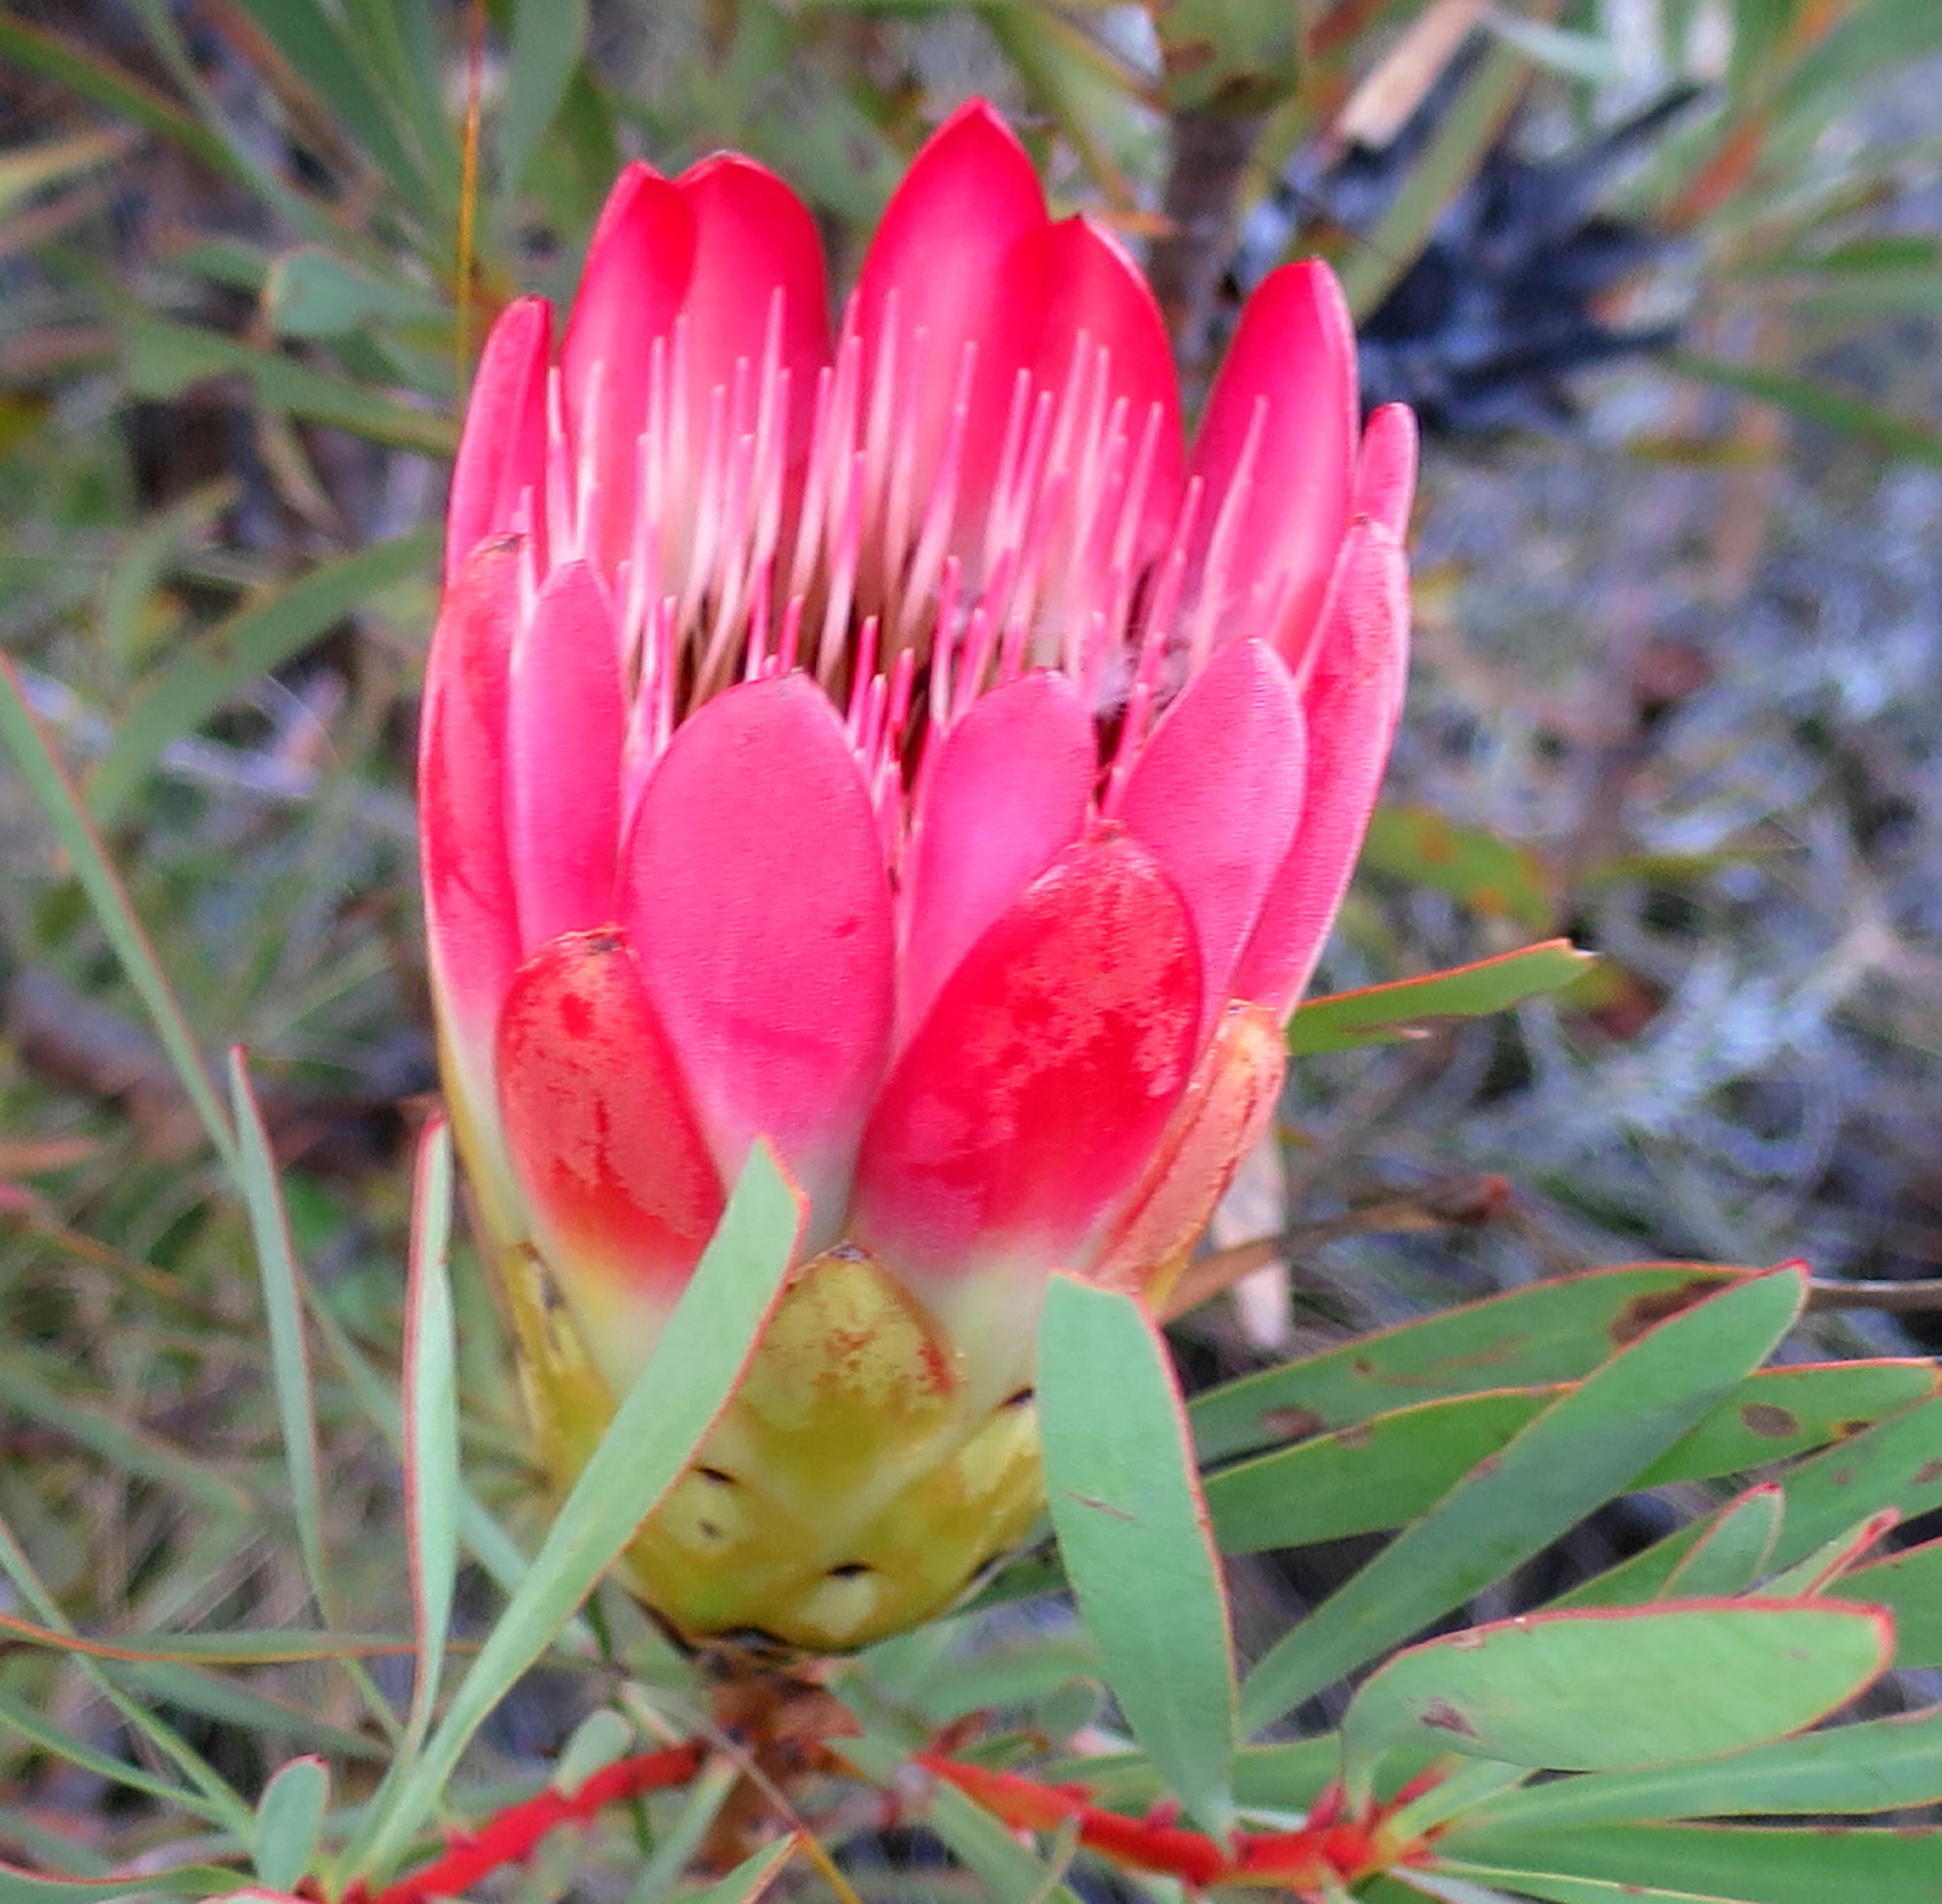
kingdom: Plantae
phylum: Tracheophyta
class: Magnoliopsida
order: Proteales
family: Proteaceae
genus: Protea
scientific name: Protea repens
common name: Sugarbush
